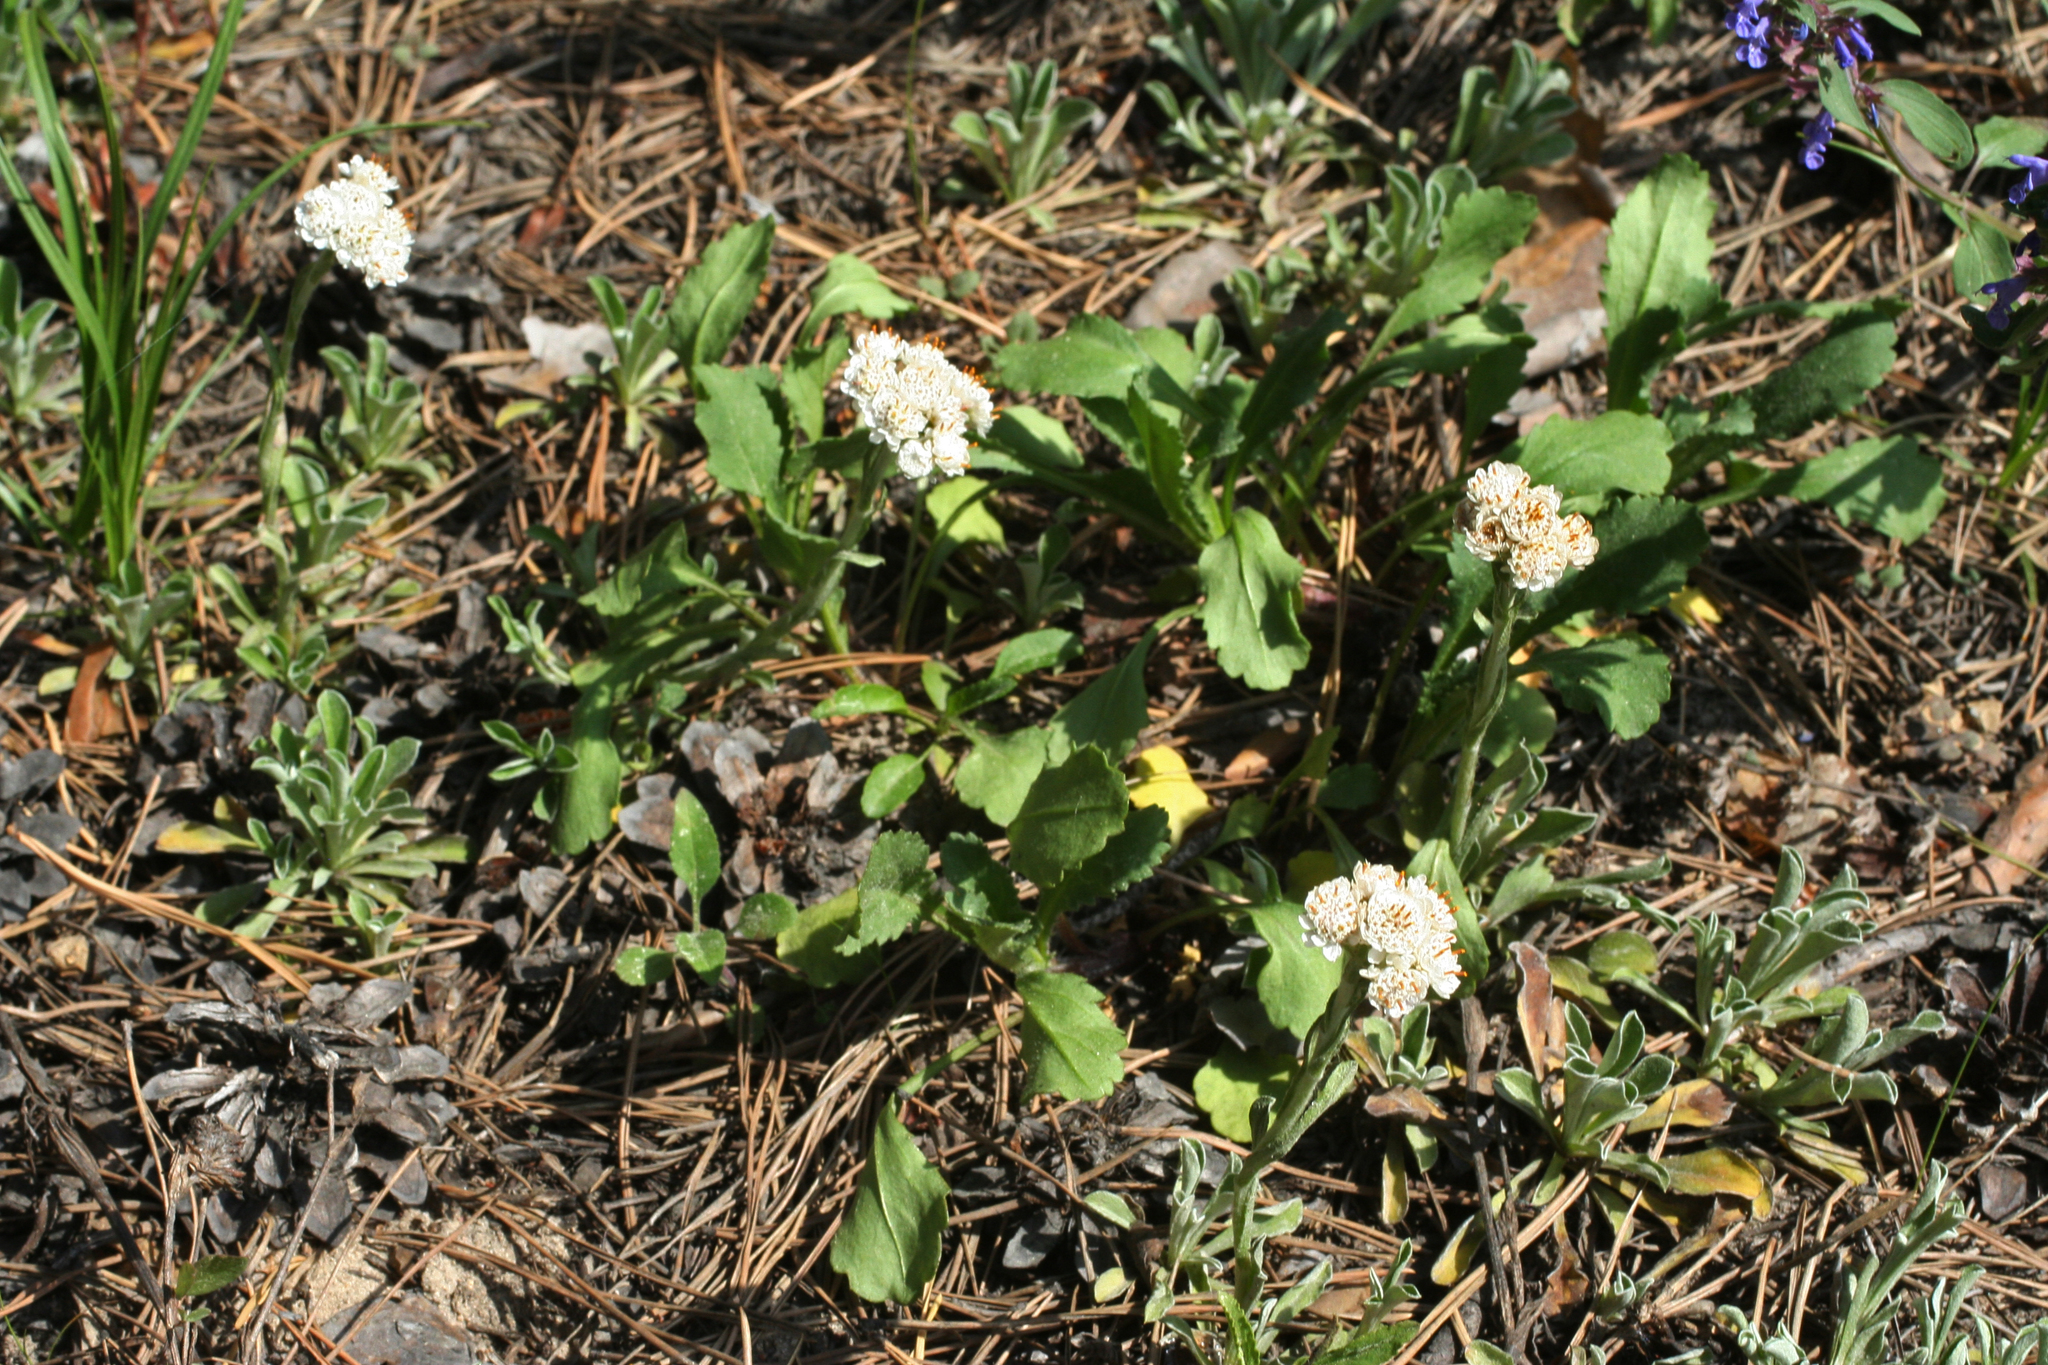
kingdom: Plantae
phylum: Tracheophyta
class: Magnoliopsida
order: Asterales
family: Asteraceae
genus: Antennaria
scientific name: Antennaria dioica
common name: Mountain everlasting
